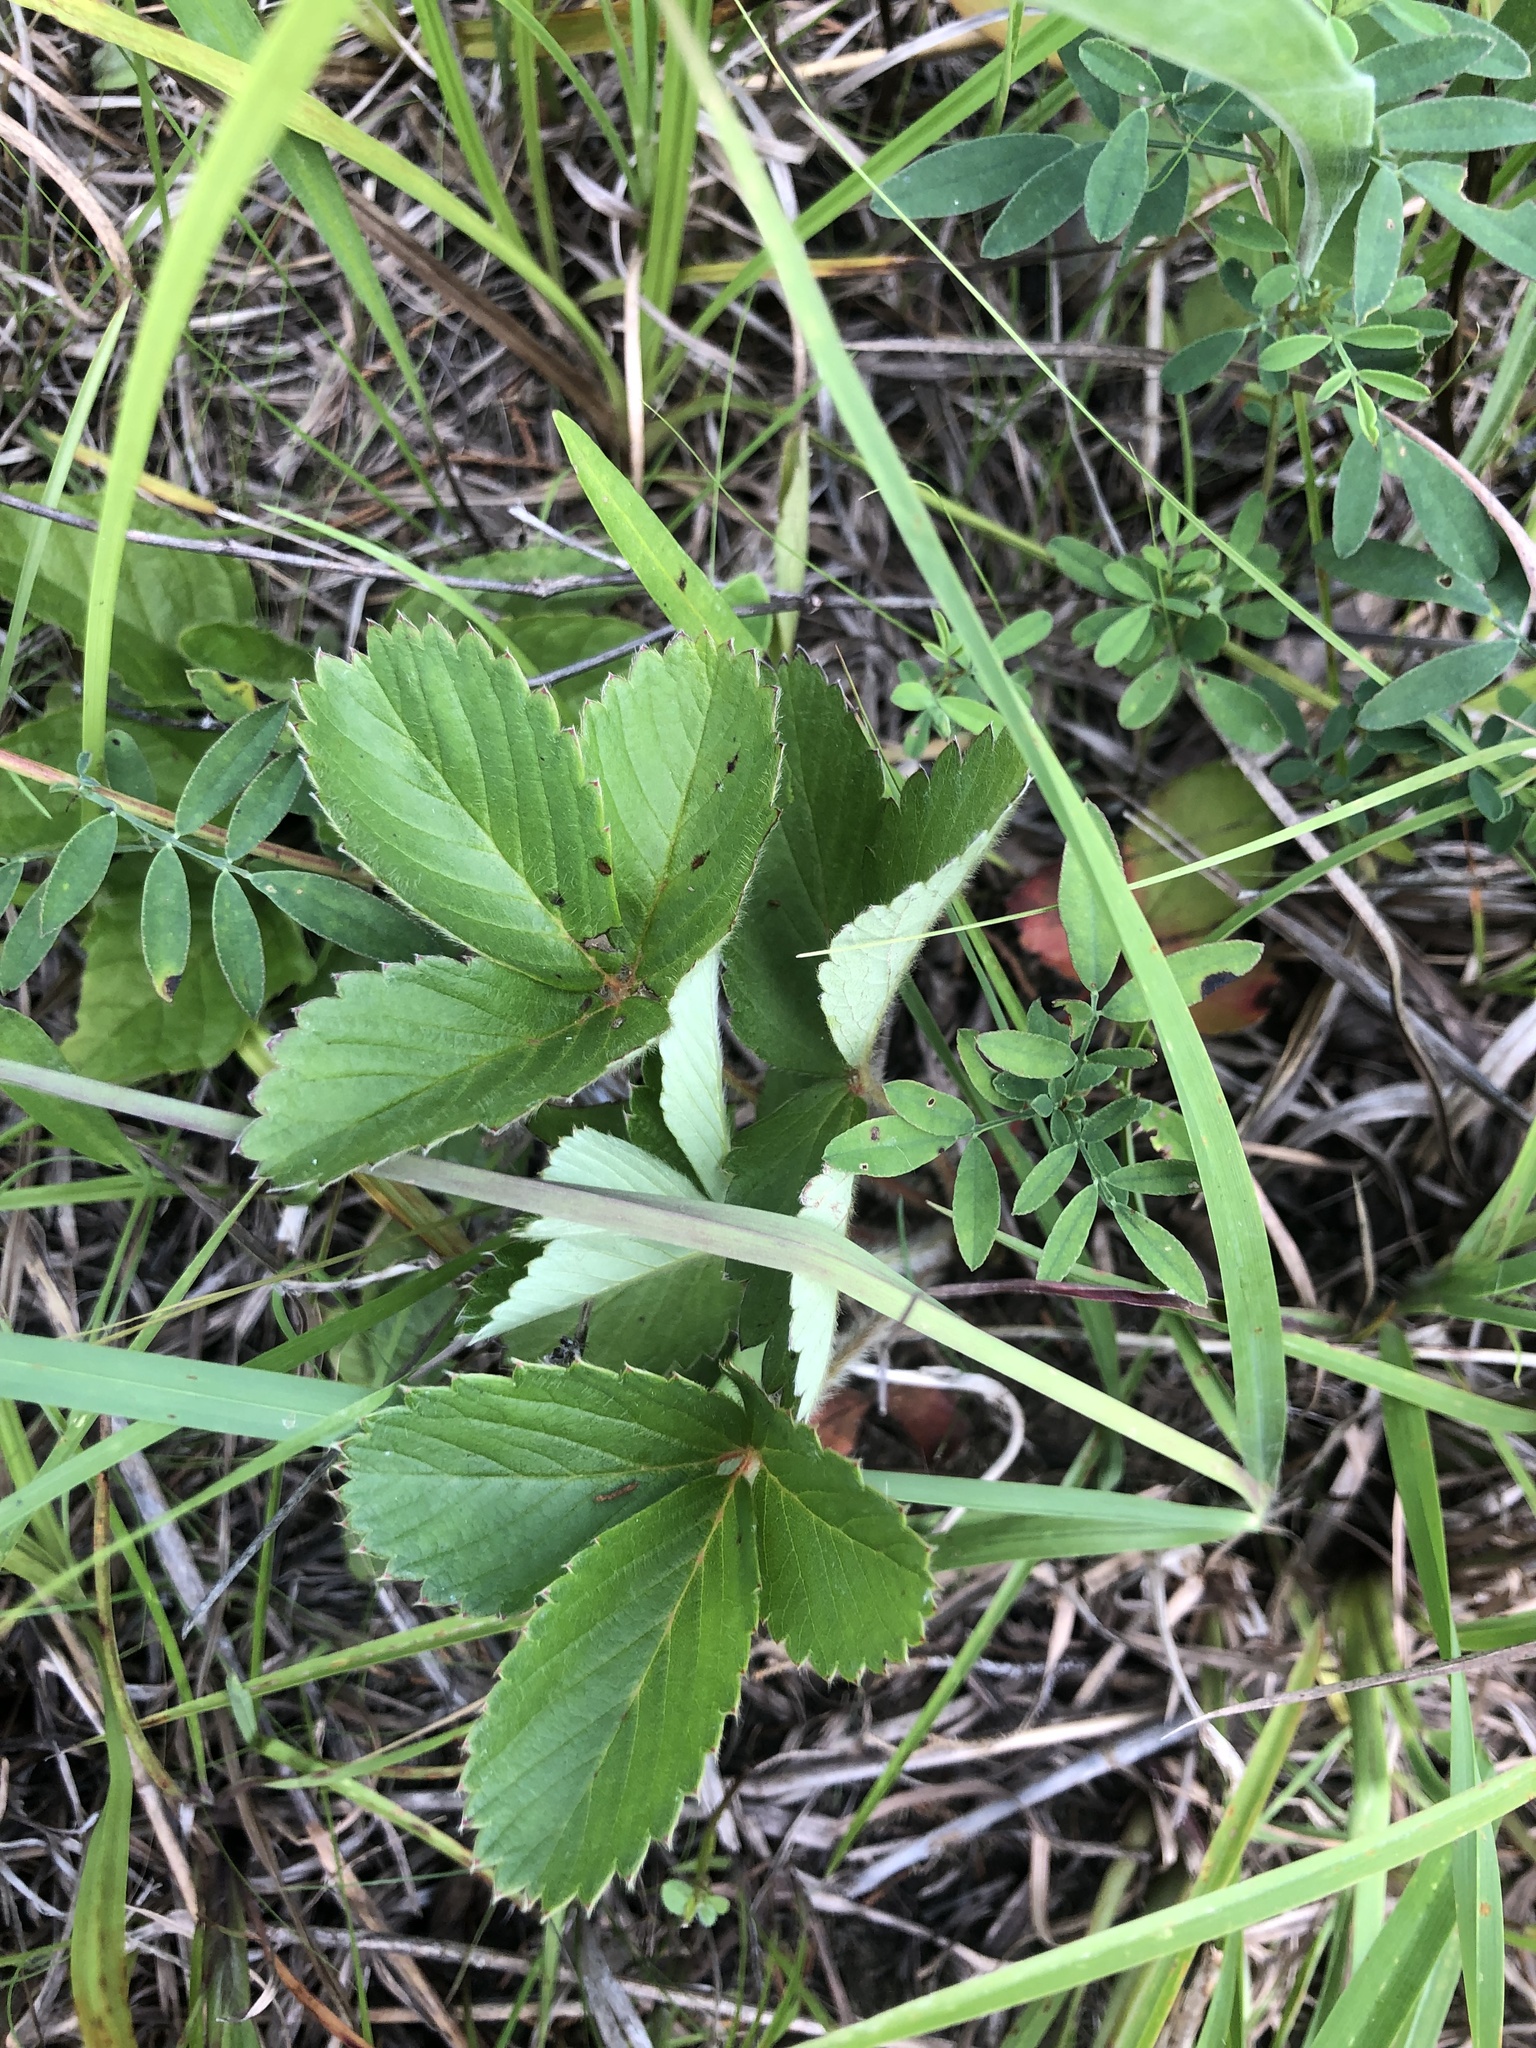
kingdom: Plantae
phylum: Tracheophyta
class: Magnoliopsida
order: Rosales
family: Rosaceae
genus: Fragaria
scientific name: Fragaria virginiana
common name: Thickleaved wild strawberry
